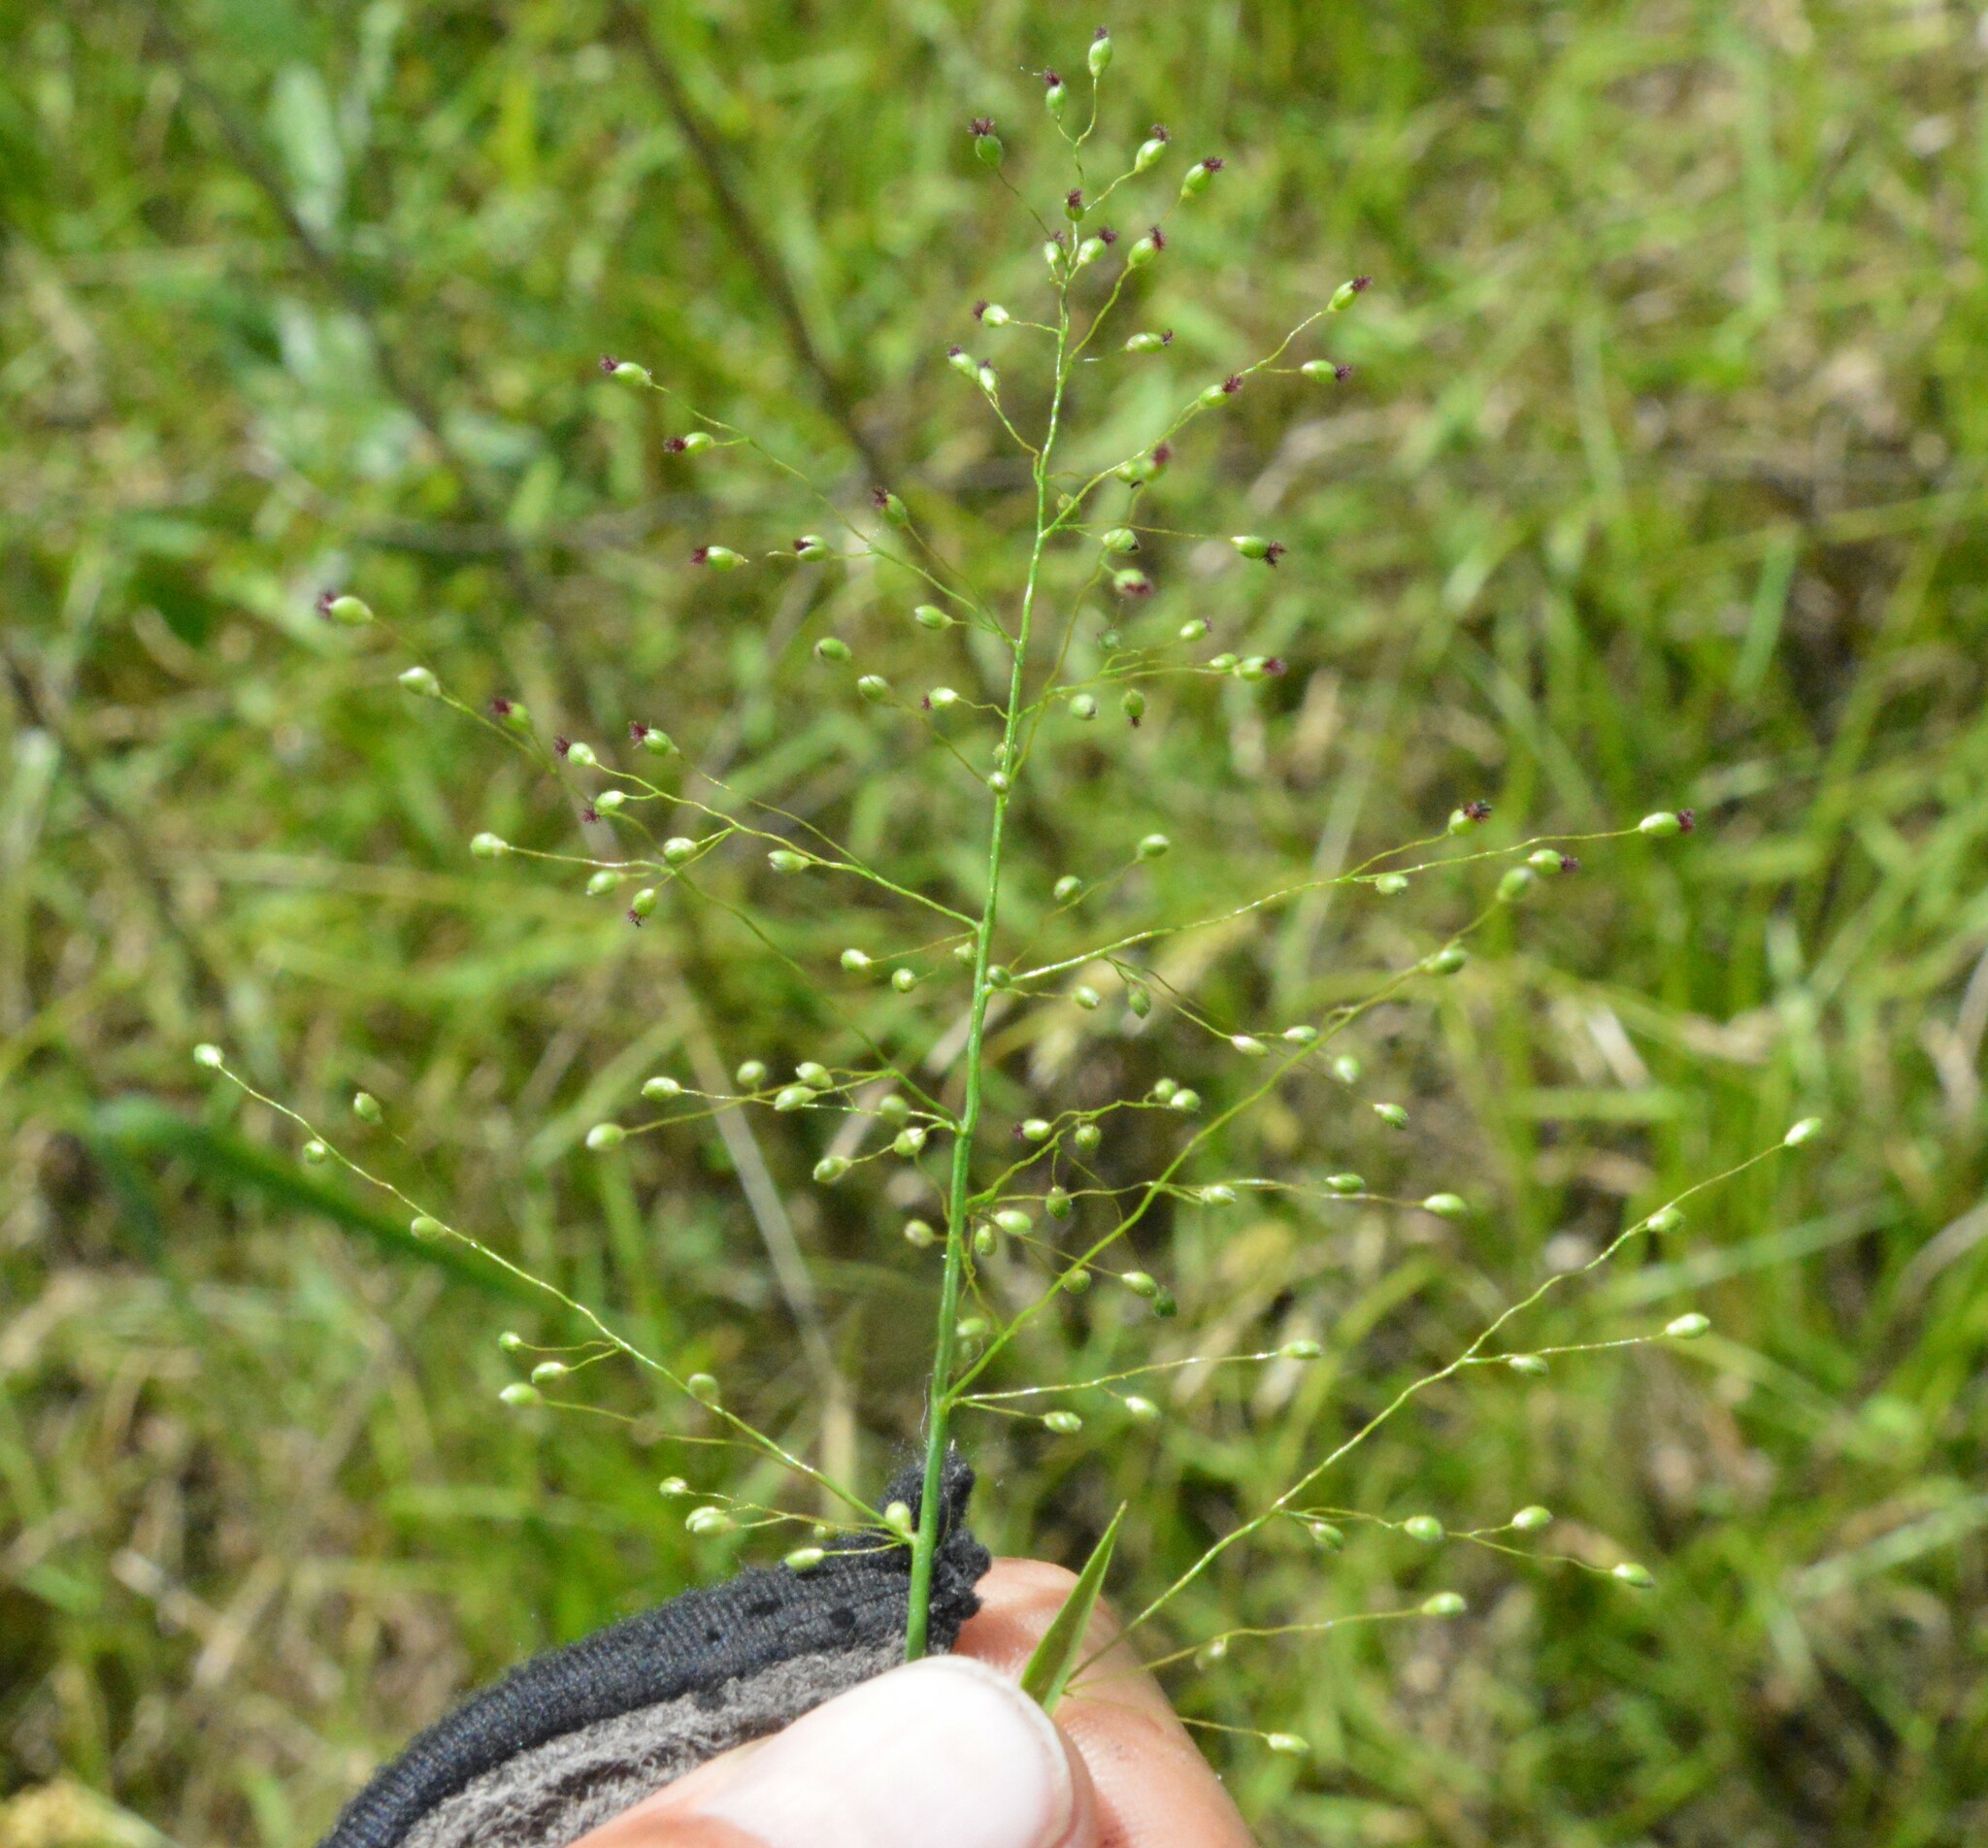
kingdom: Plantae
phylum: Tracheophyta
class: Liliopsida
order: Poales
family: Poaceae
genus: Dichanthelium
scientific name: Dichanthelium lindheimeri
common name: Lindheimer's panicgrass
